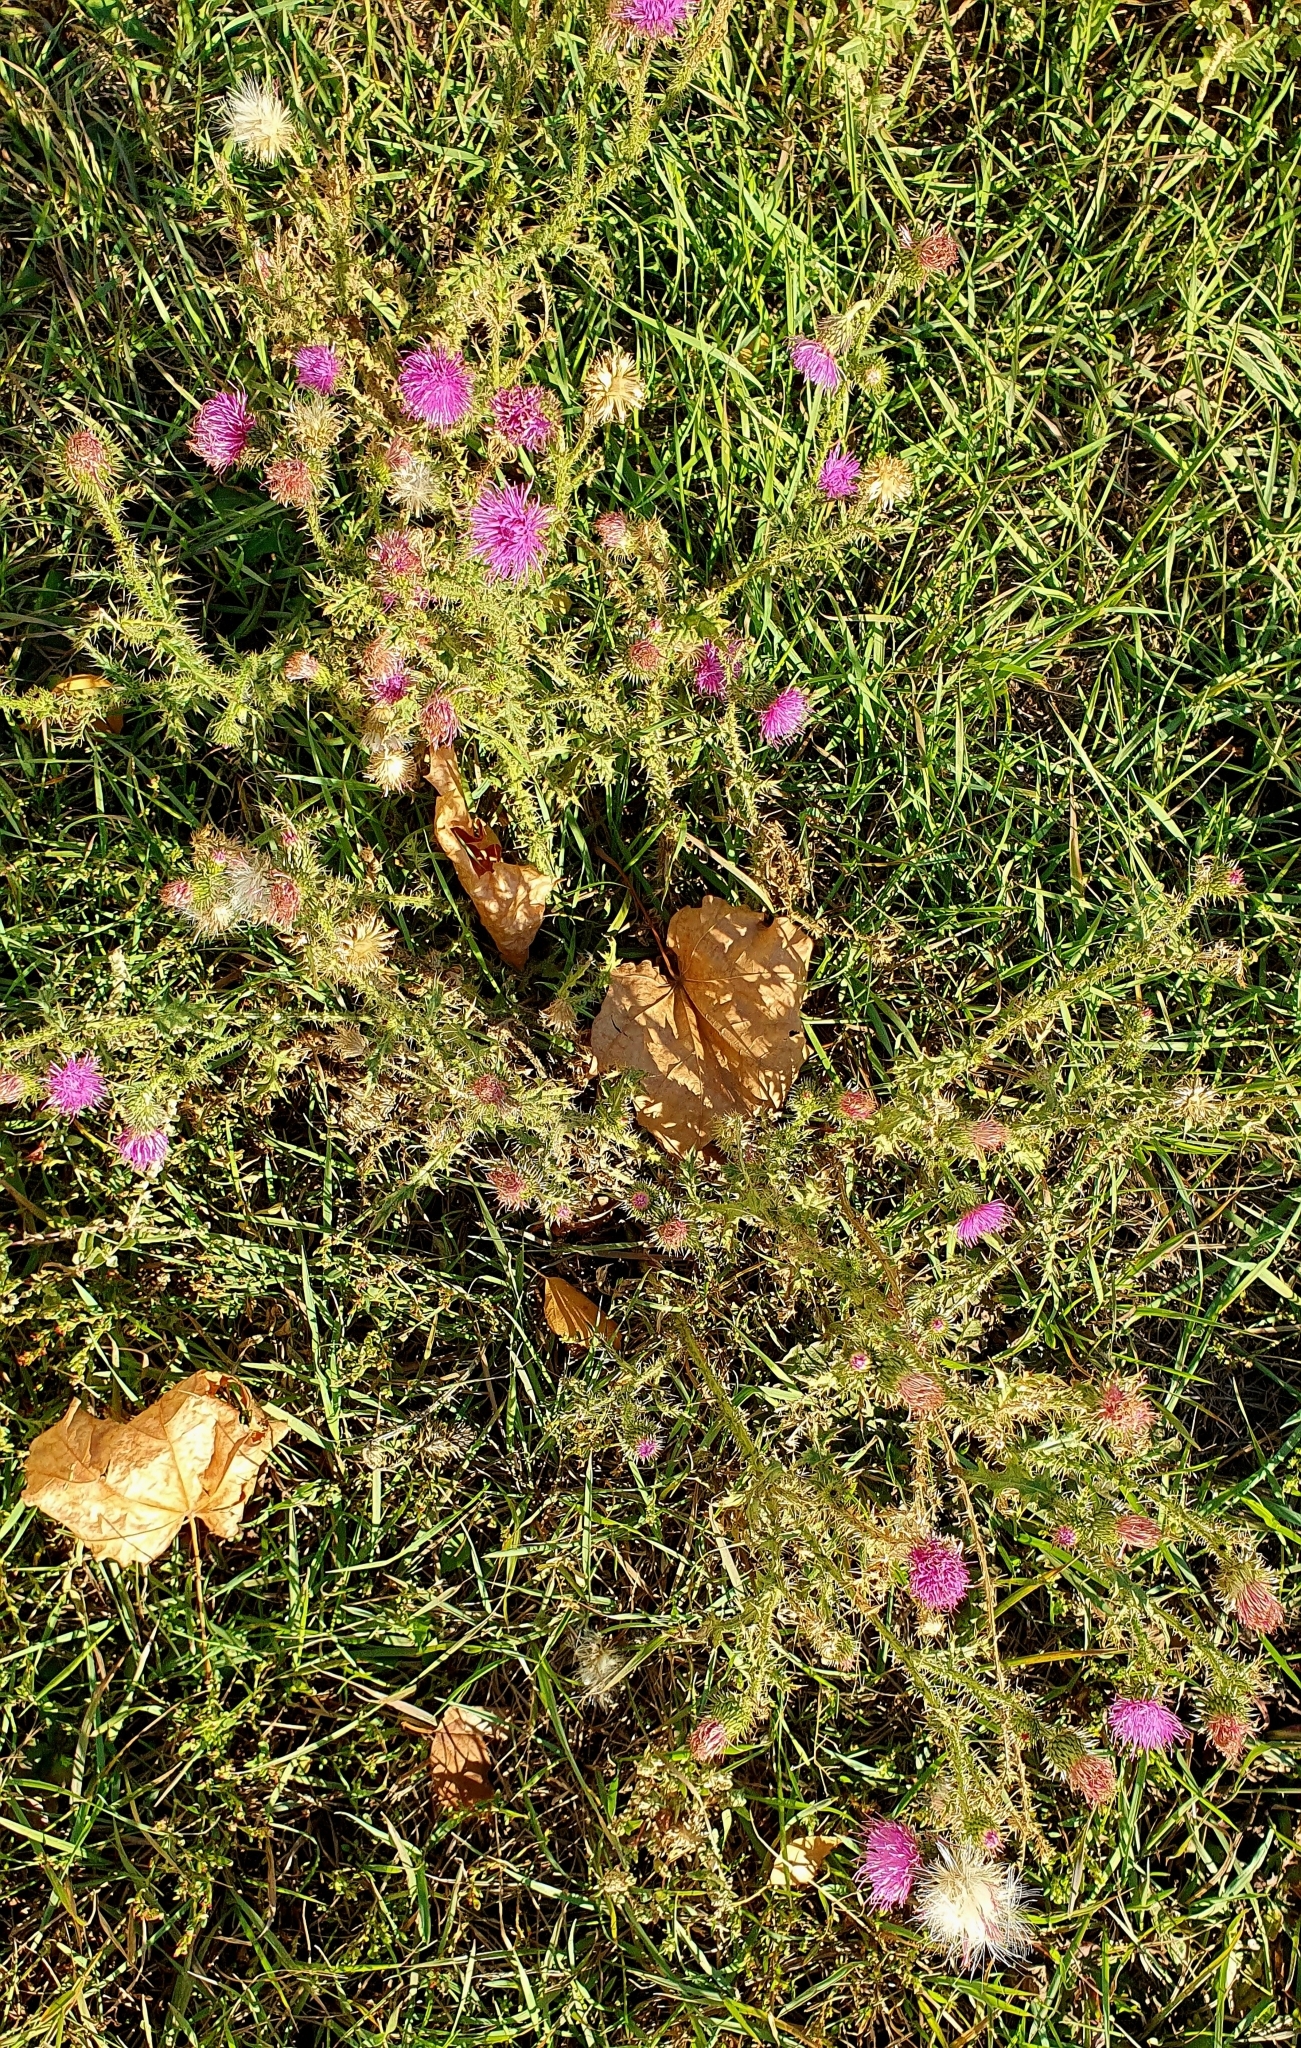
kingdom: Plantae
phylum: Tracheophyta
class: Magnoliopsida
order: Asterales
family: Asteraceae
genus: Carduus
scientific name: Carduus acanthoides
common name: Plumeless thistle
